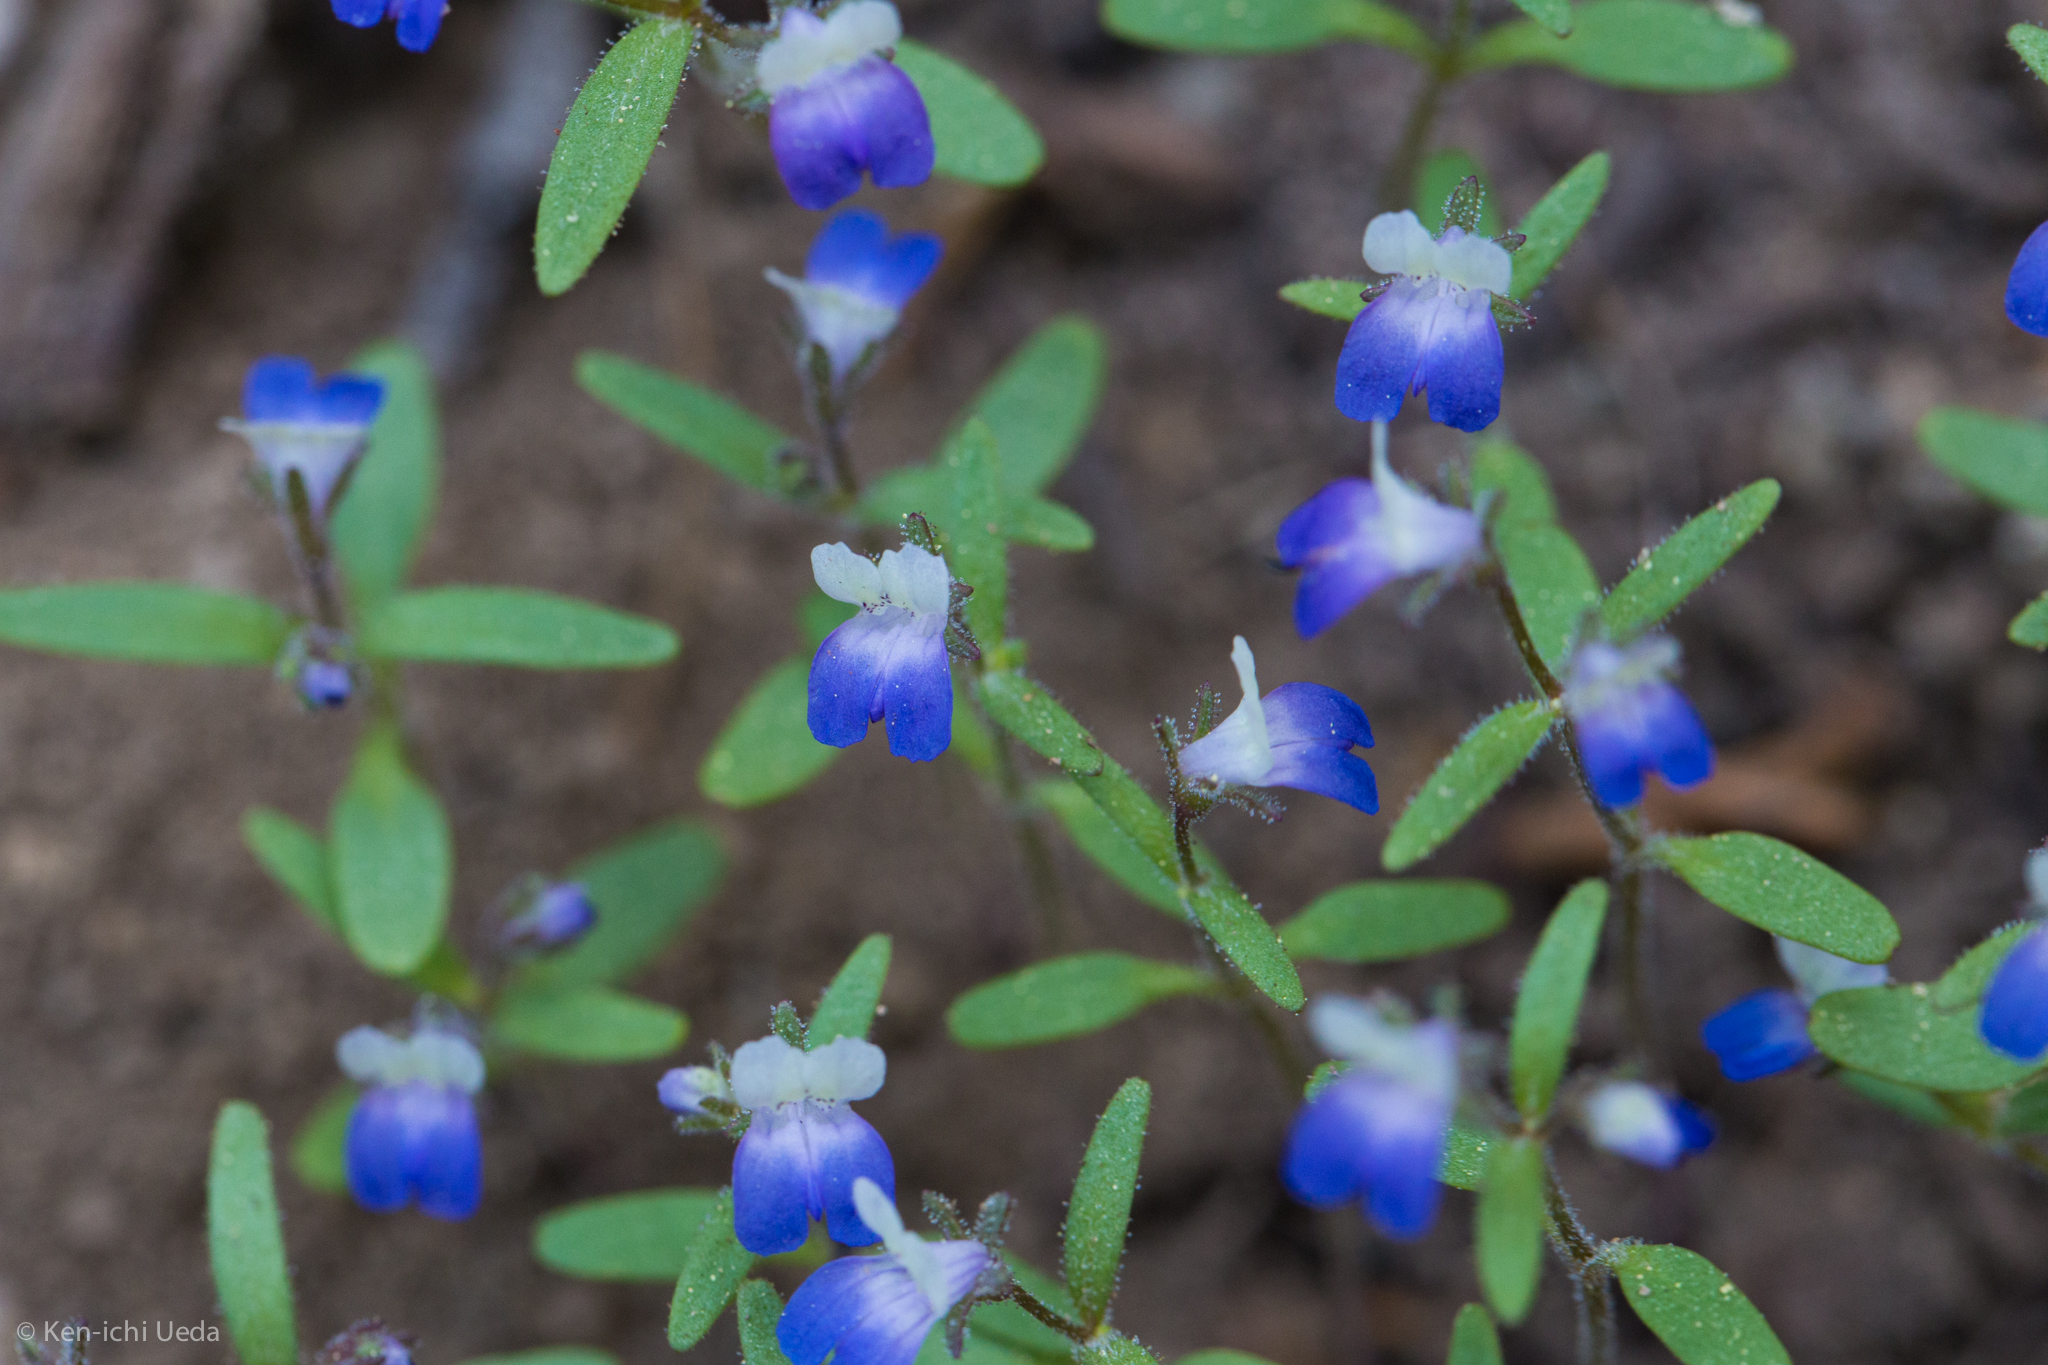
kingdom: Plantae
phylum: Tracheophyta
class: Magnoliopsida
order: Lamiales
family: Plantaginaceae
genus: Collinsia
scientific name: Collinsia torreyi
